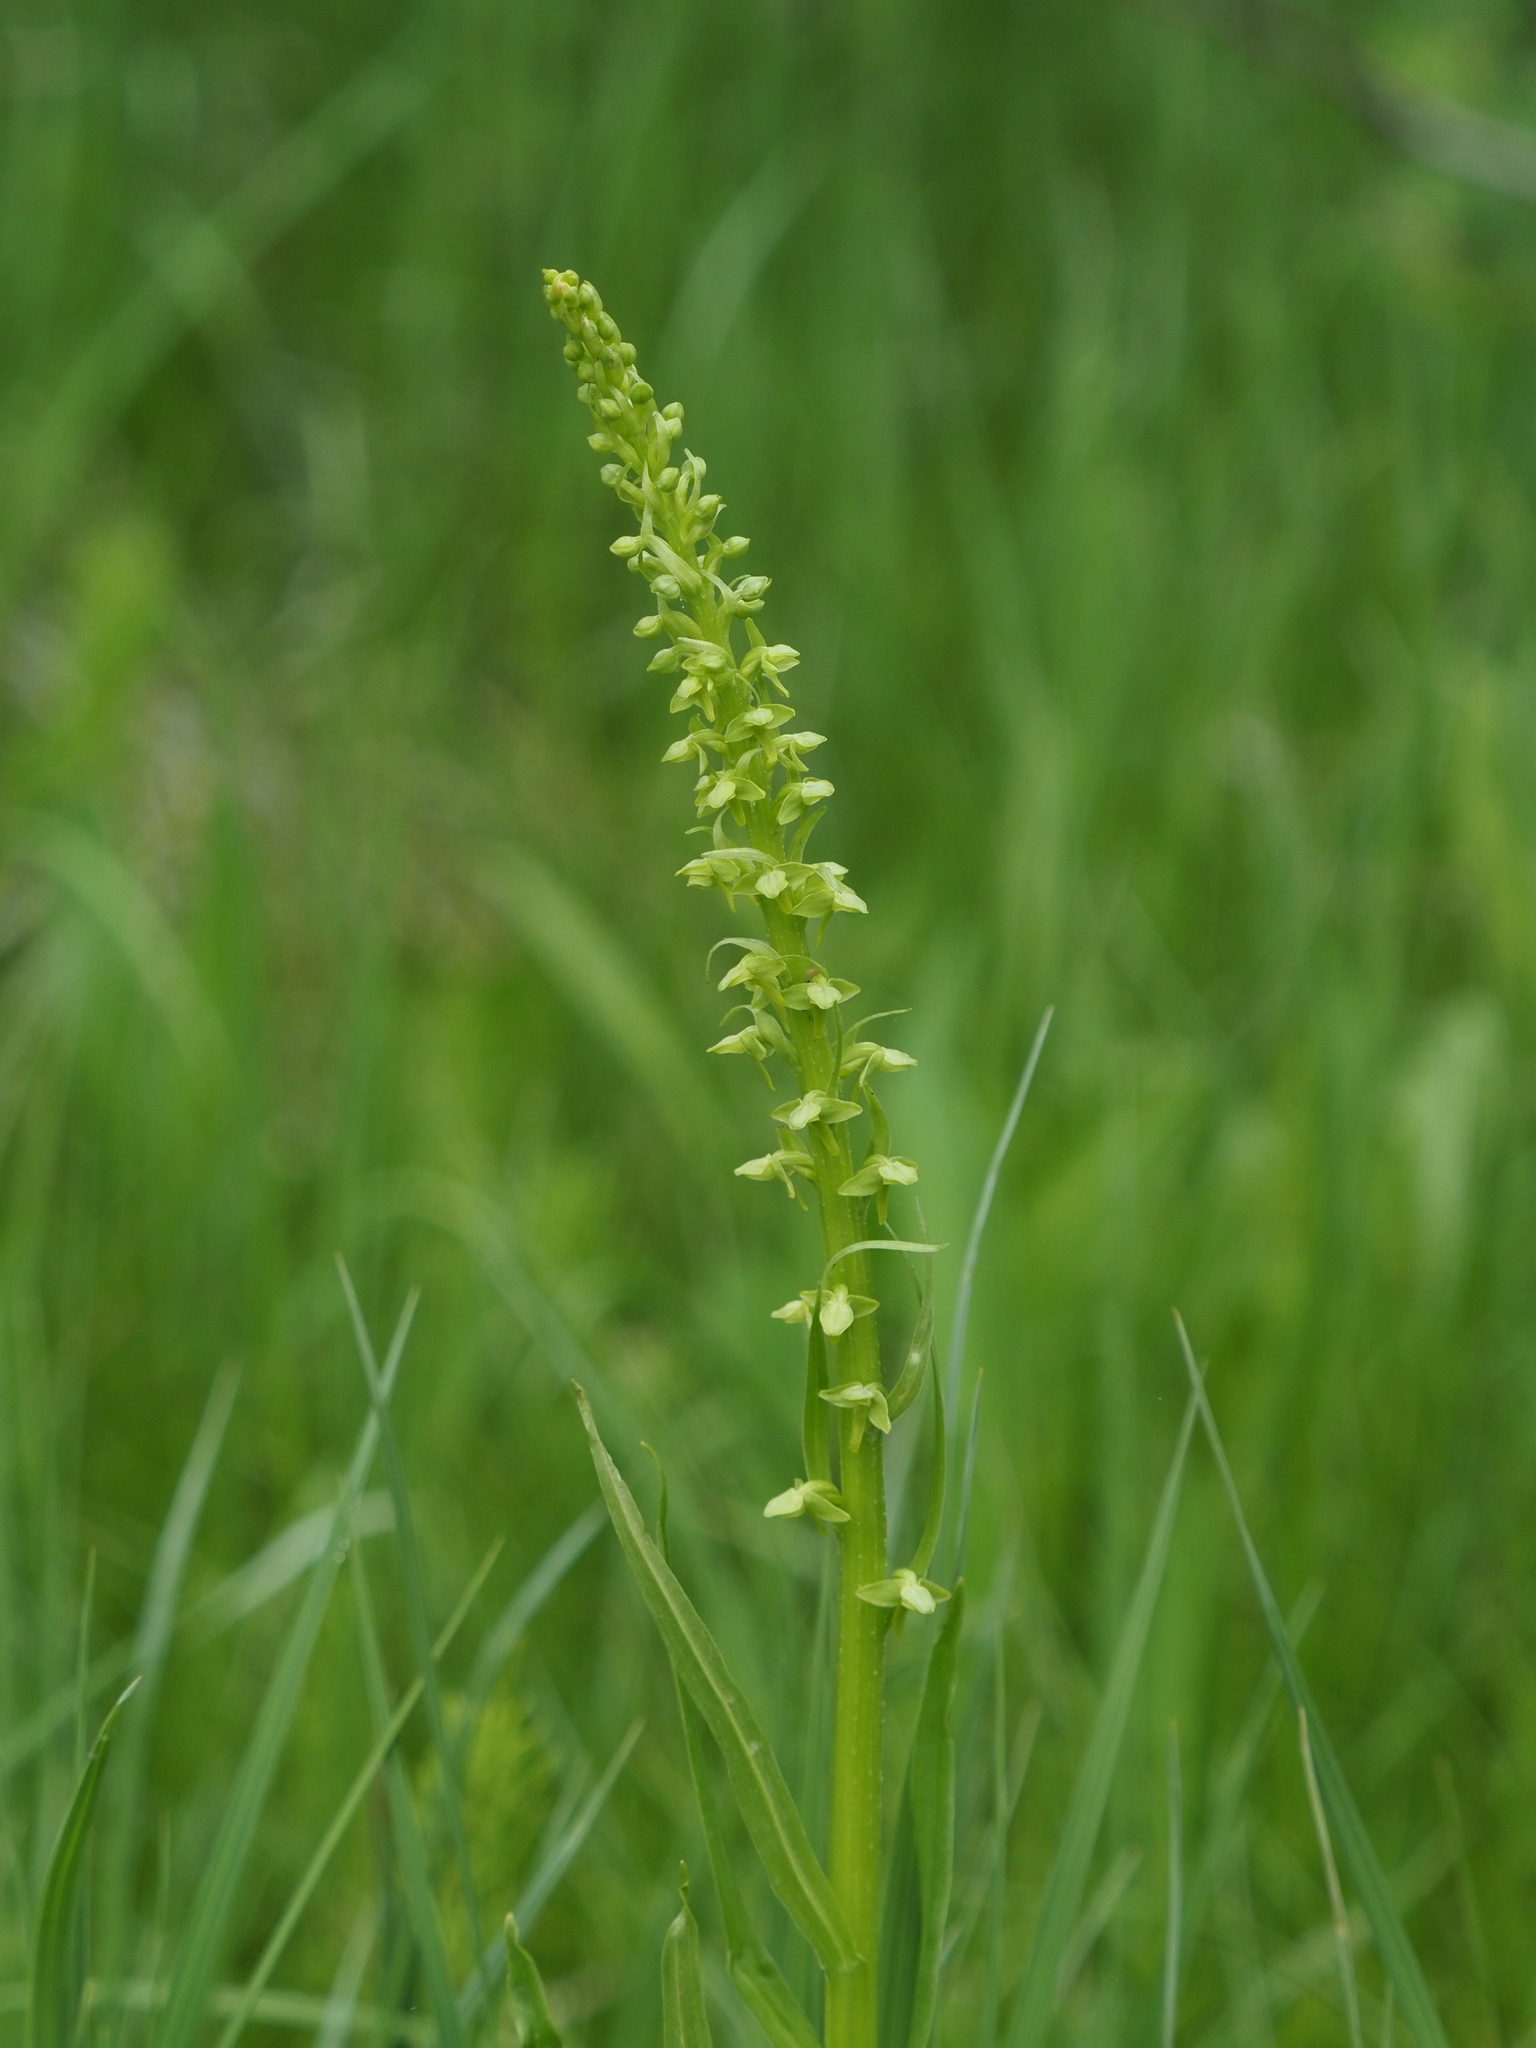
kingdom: Plantae
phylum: Tracheophyta
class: Liliopsida
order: Asparagales
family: Orchidaceae
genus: Platanthera
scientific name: Platanthera stricta
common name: Slender bog orchid
